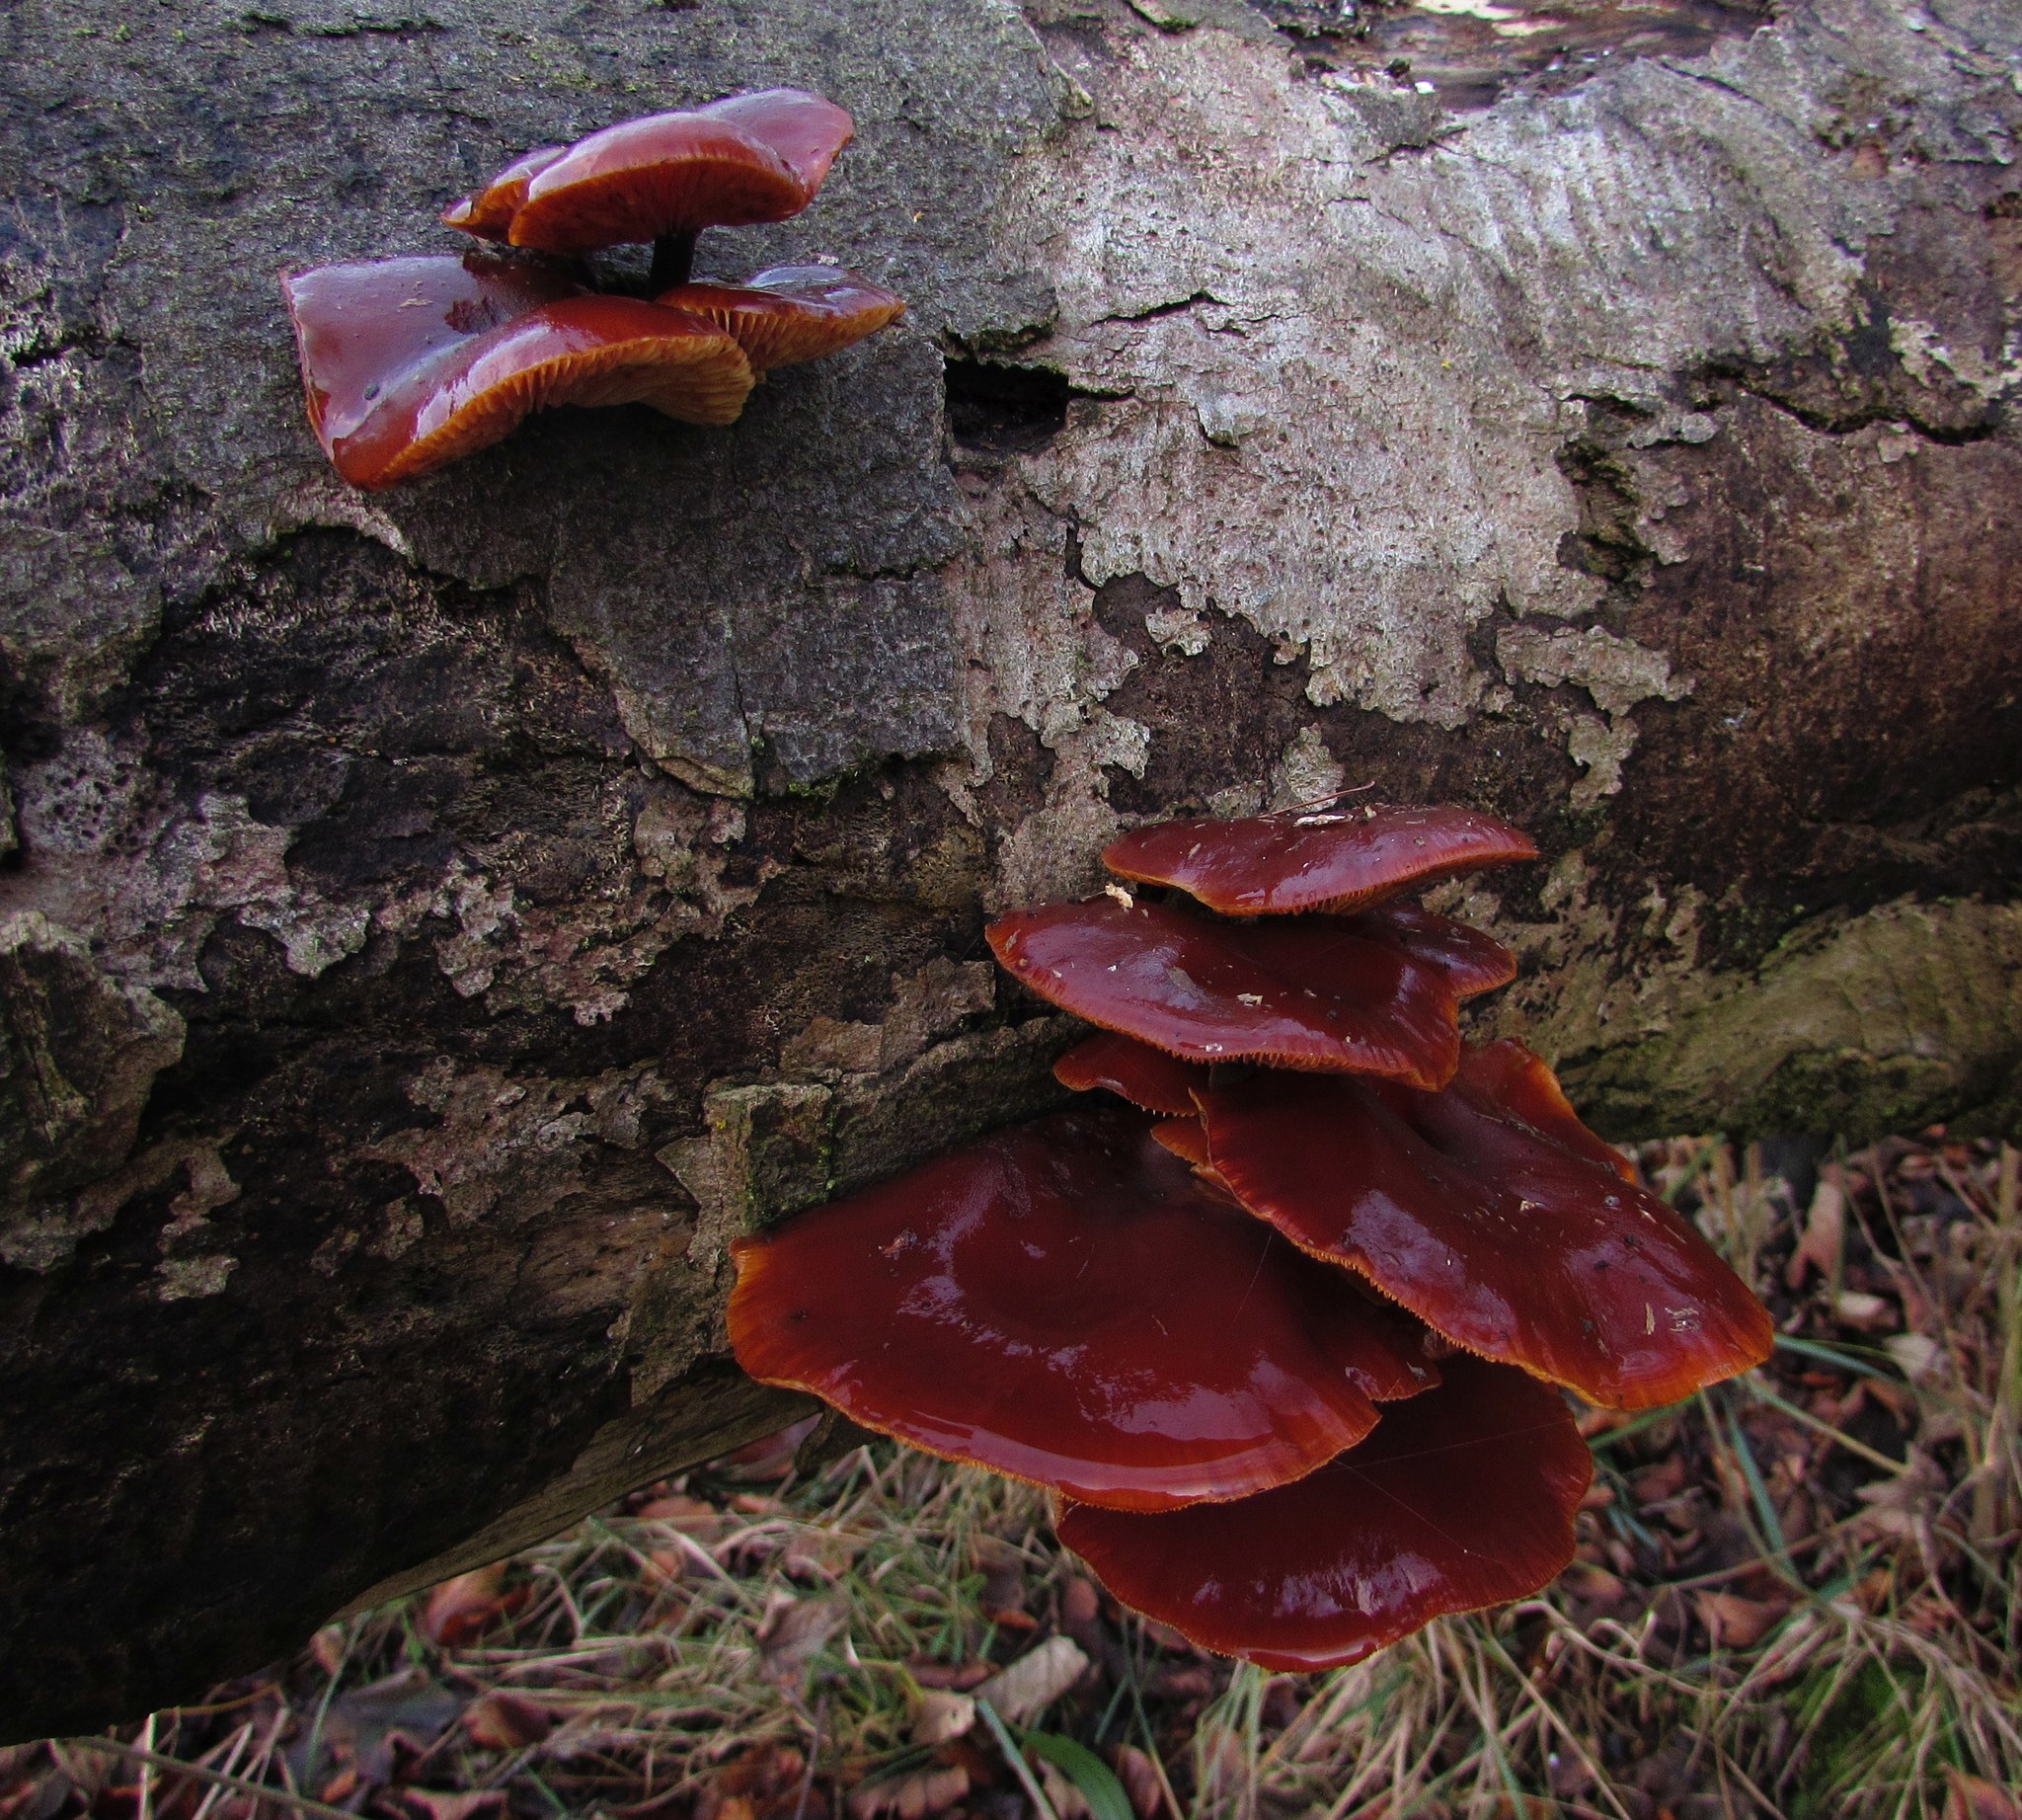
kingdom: Fungi
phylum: Basidiomycota
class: Agaricomycetes
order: Agaricales
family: Physalacriaceae
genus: Flammulina
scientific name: Flammulina
